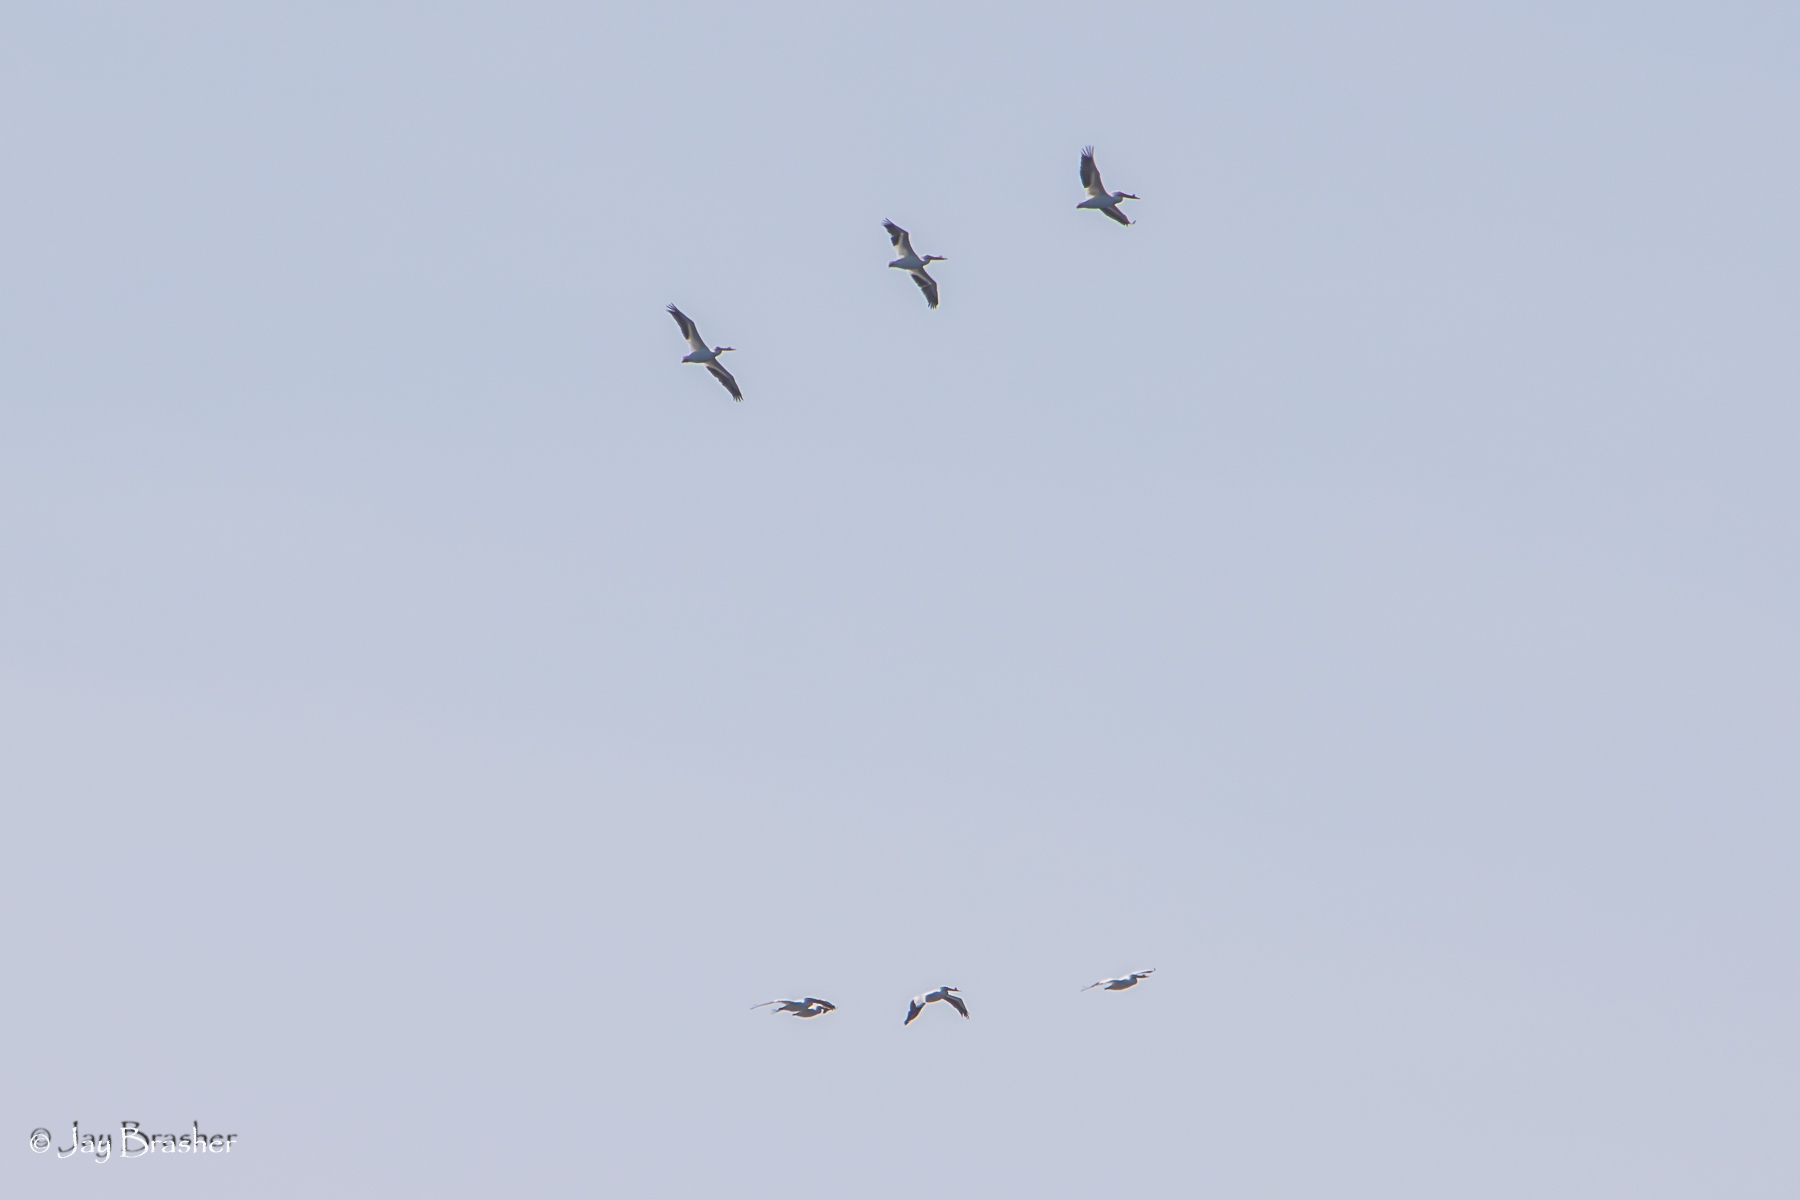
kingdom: Animalia
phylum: Chordata
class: Aves
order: Pelecaniformes
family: Pelecanidae
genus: Pelecanus
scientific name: Pelecanus erythrorhynchos
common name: American white pelican
